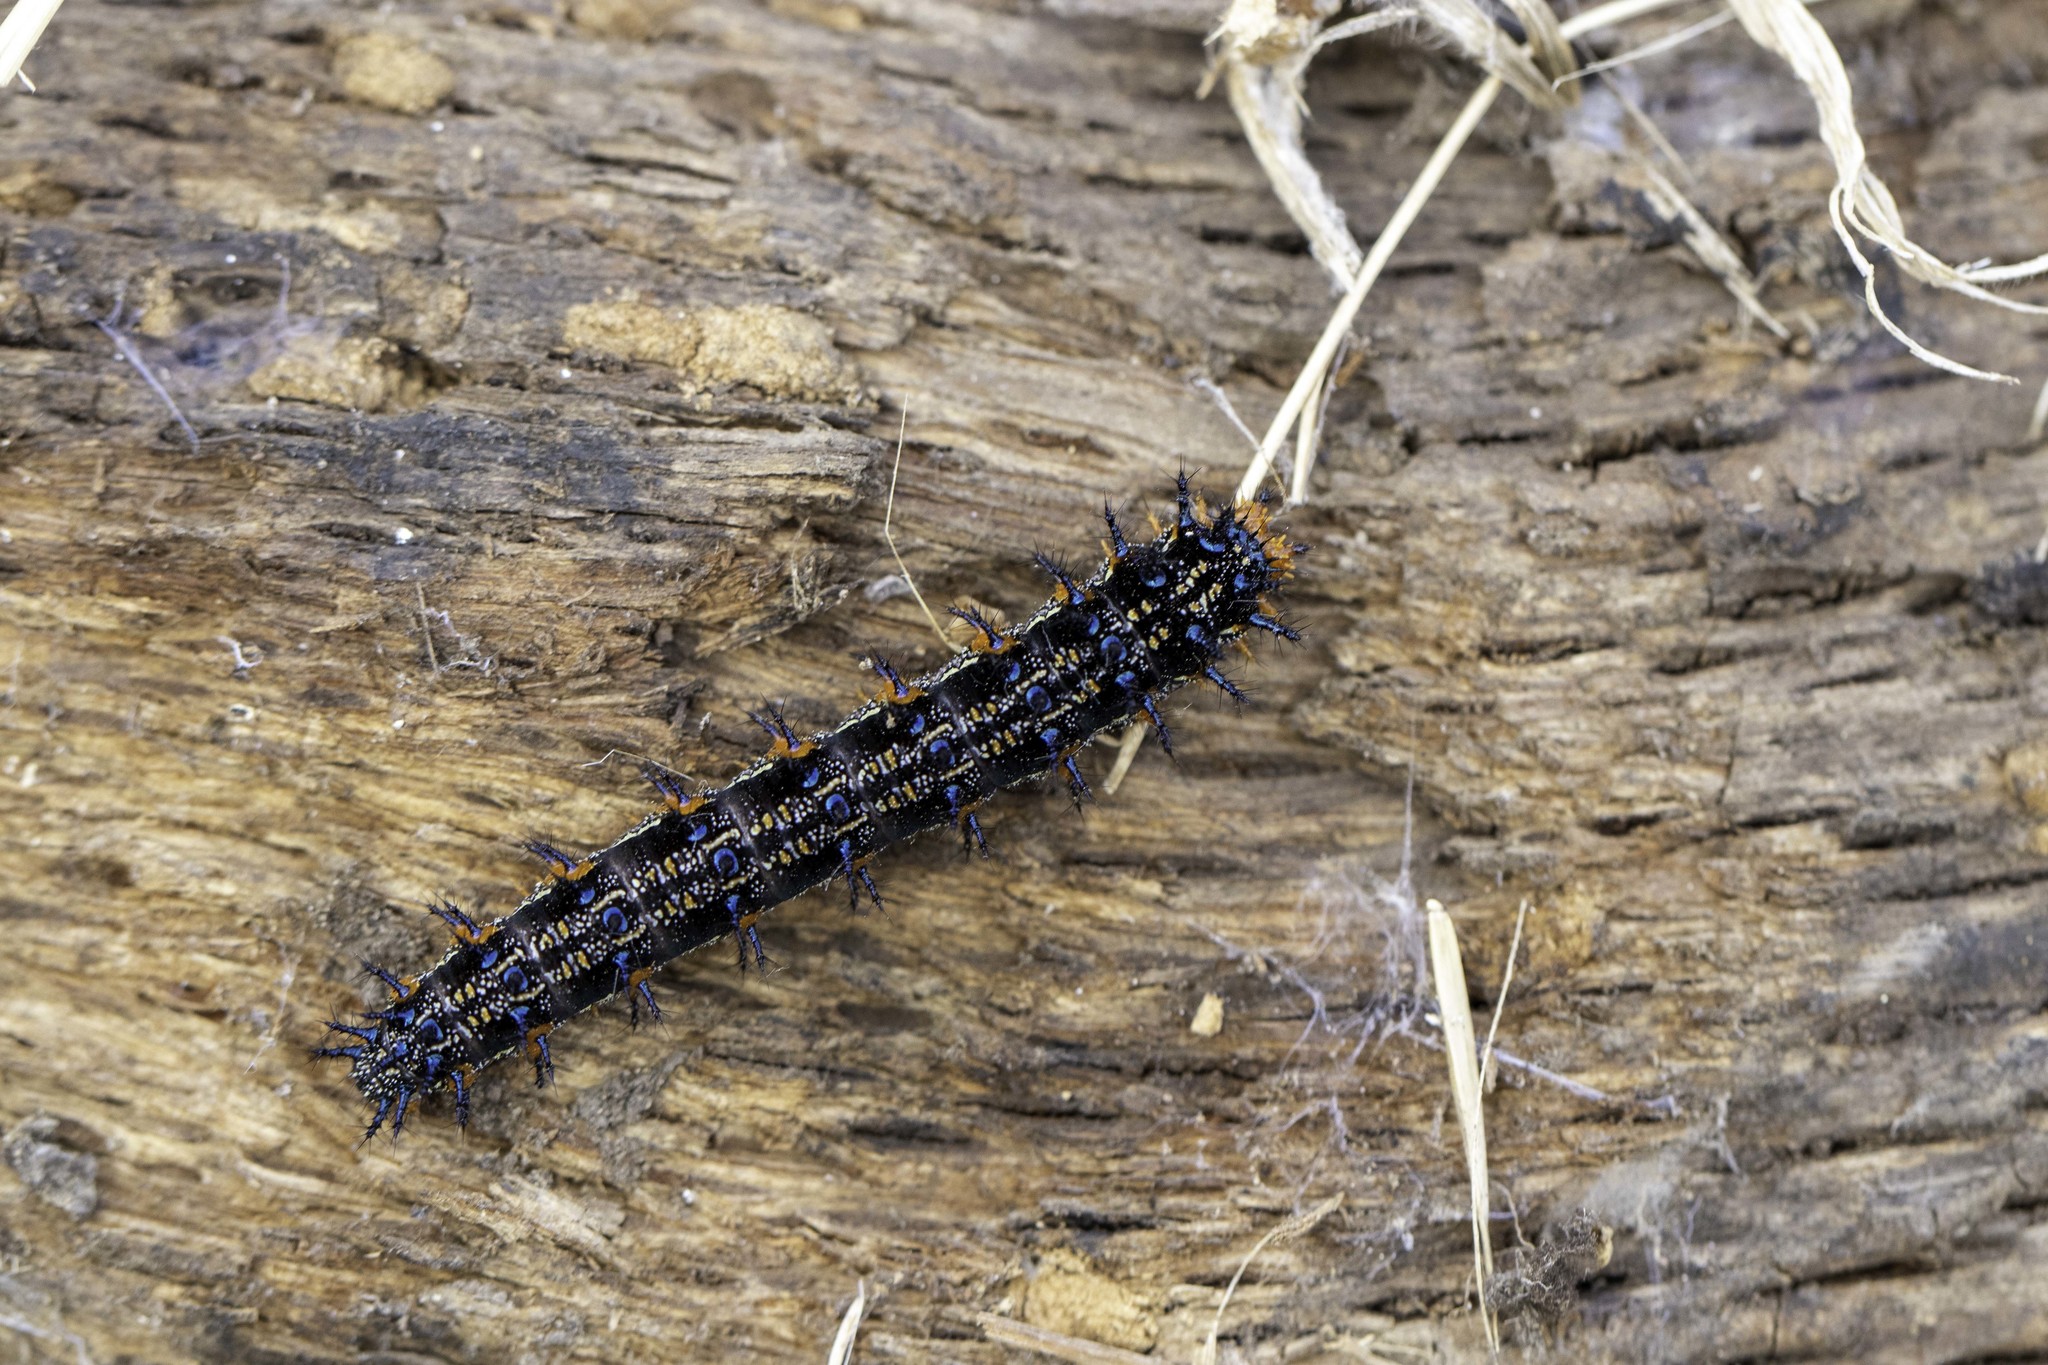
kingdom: Animalia
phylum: Arthropoda
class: Insecta
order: Lepidoptera
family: Nymphalidae
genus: Junonia
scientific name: Junonia grisea
